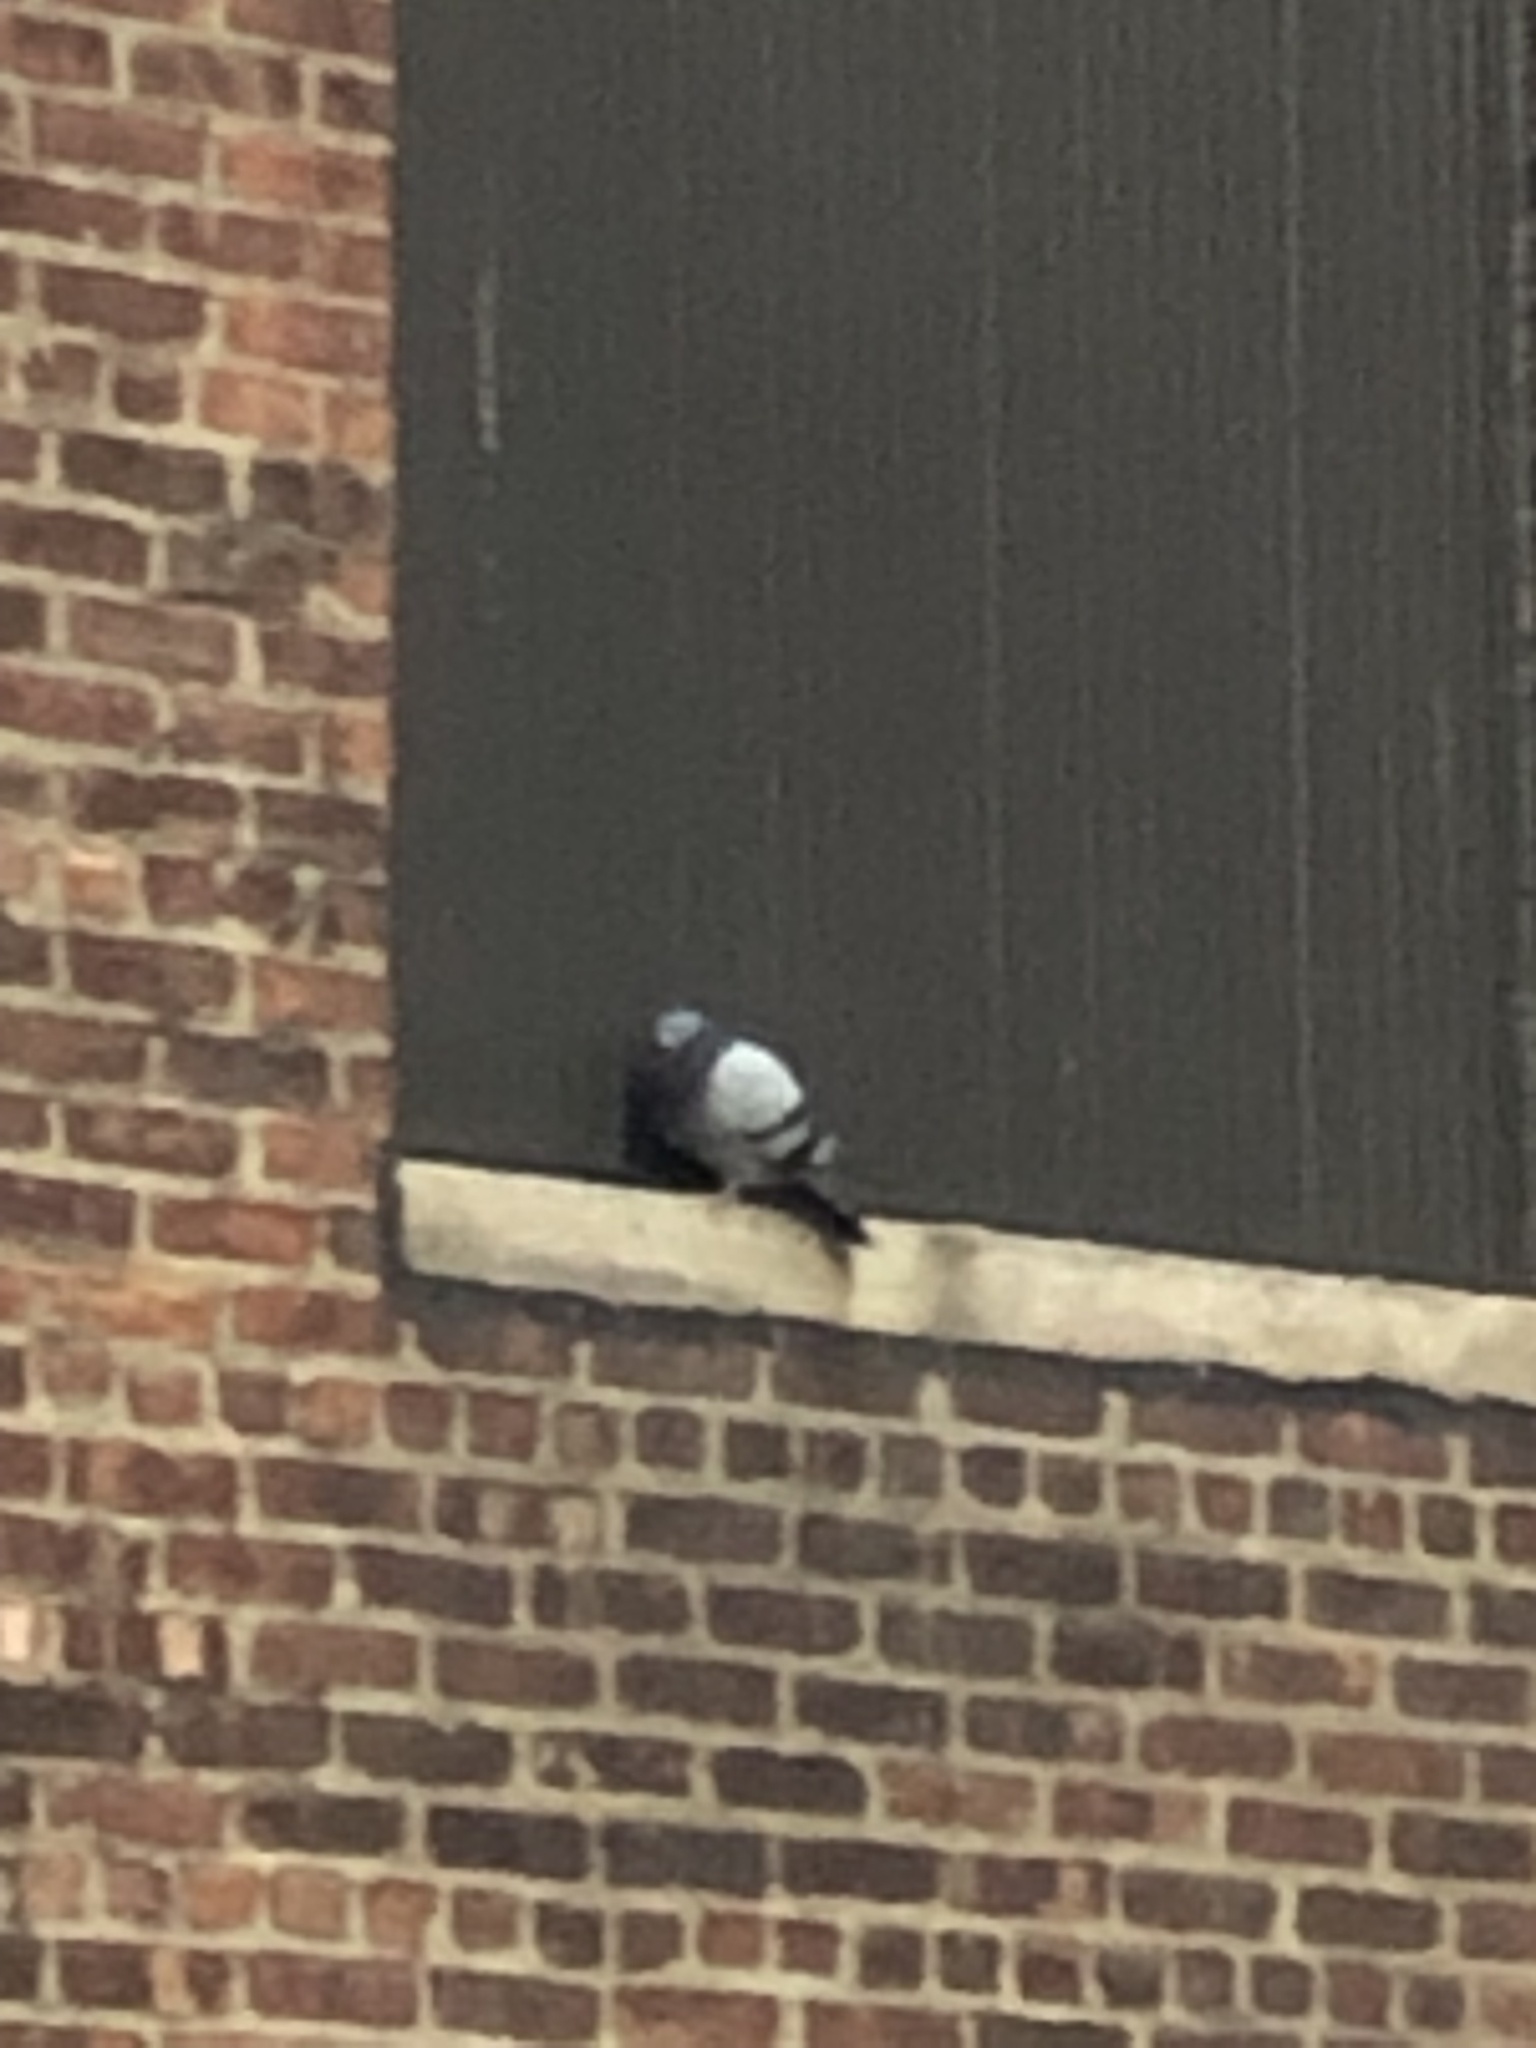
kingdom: Animalia
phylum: Chordata
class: Aves
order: Columbiformes
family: Columbidae
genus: Columba
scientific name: Columba livia
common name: Rock pigeon
